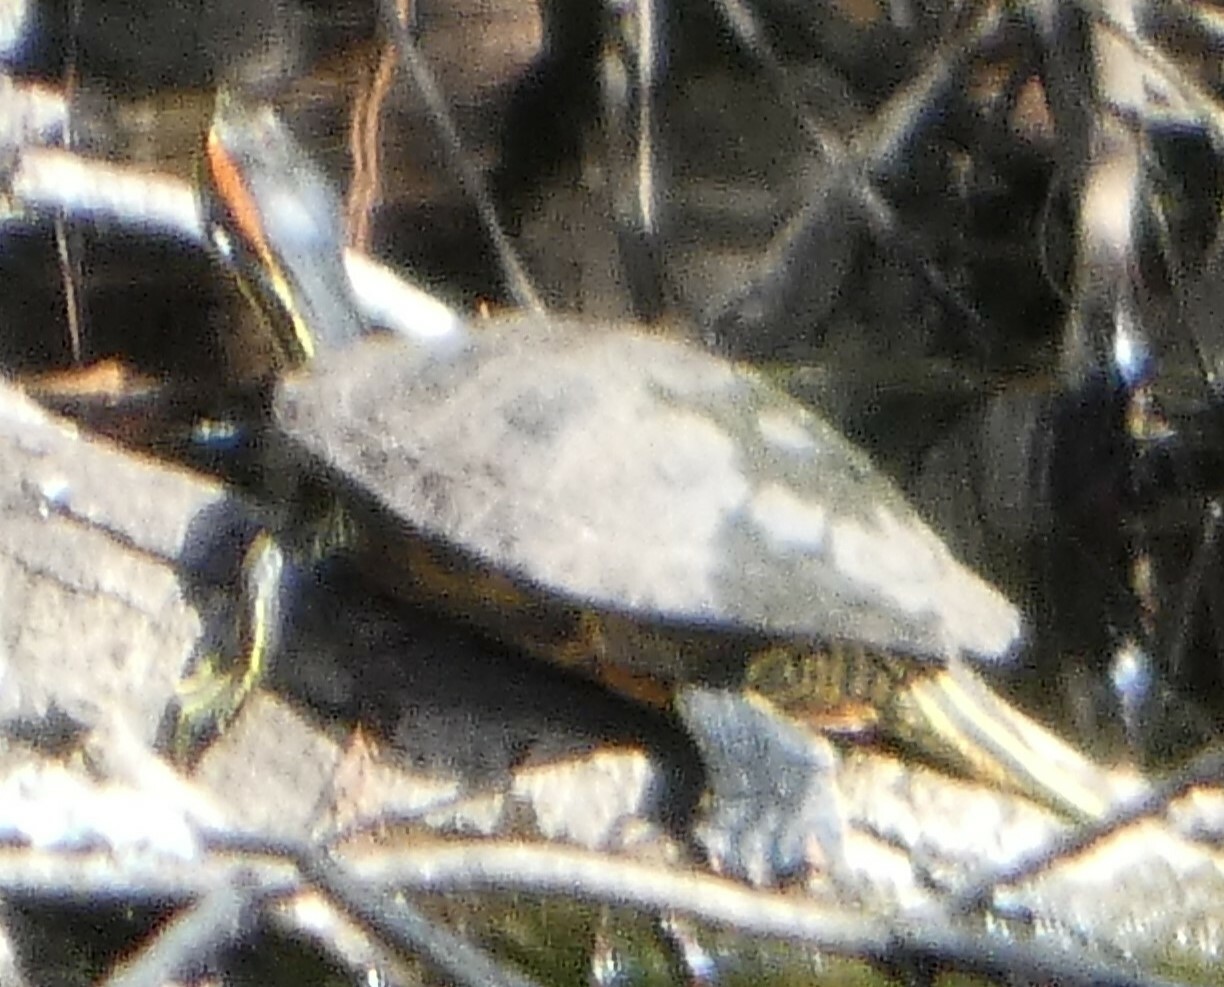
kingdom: Animalia
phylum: Chordata
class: Testudines
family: Emydidae
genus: Trachemys
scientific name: Trachemys scripta
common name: Slider
